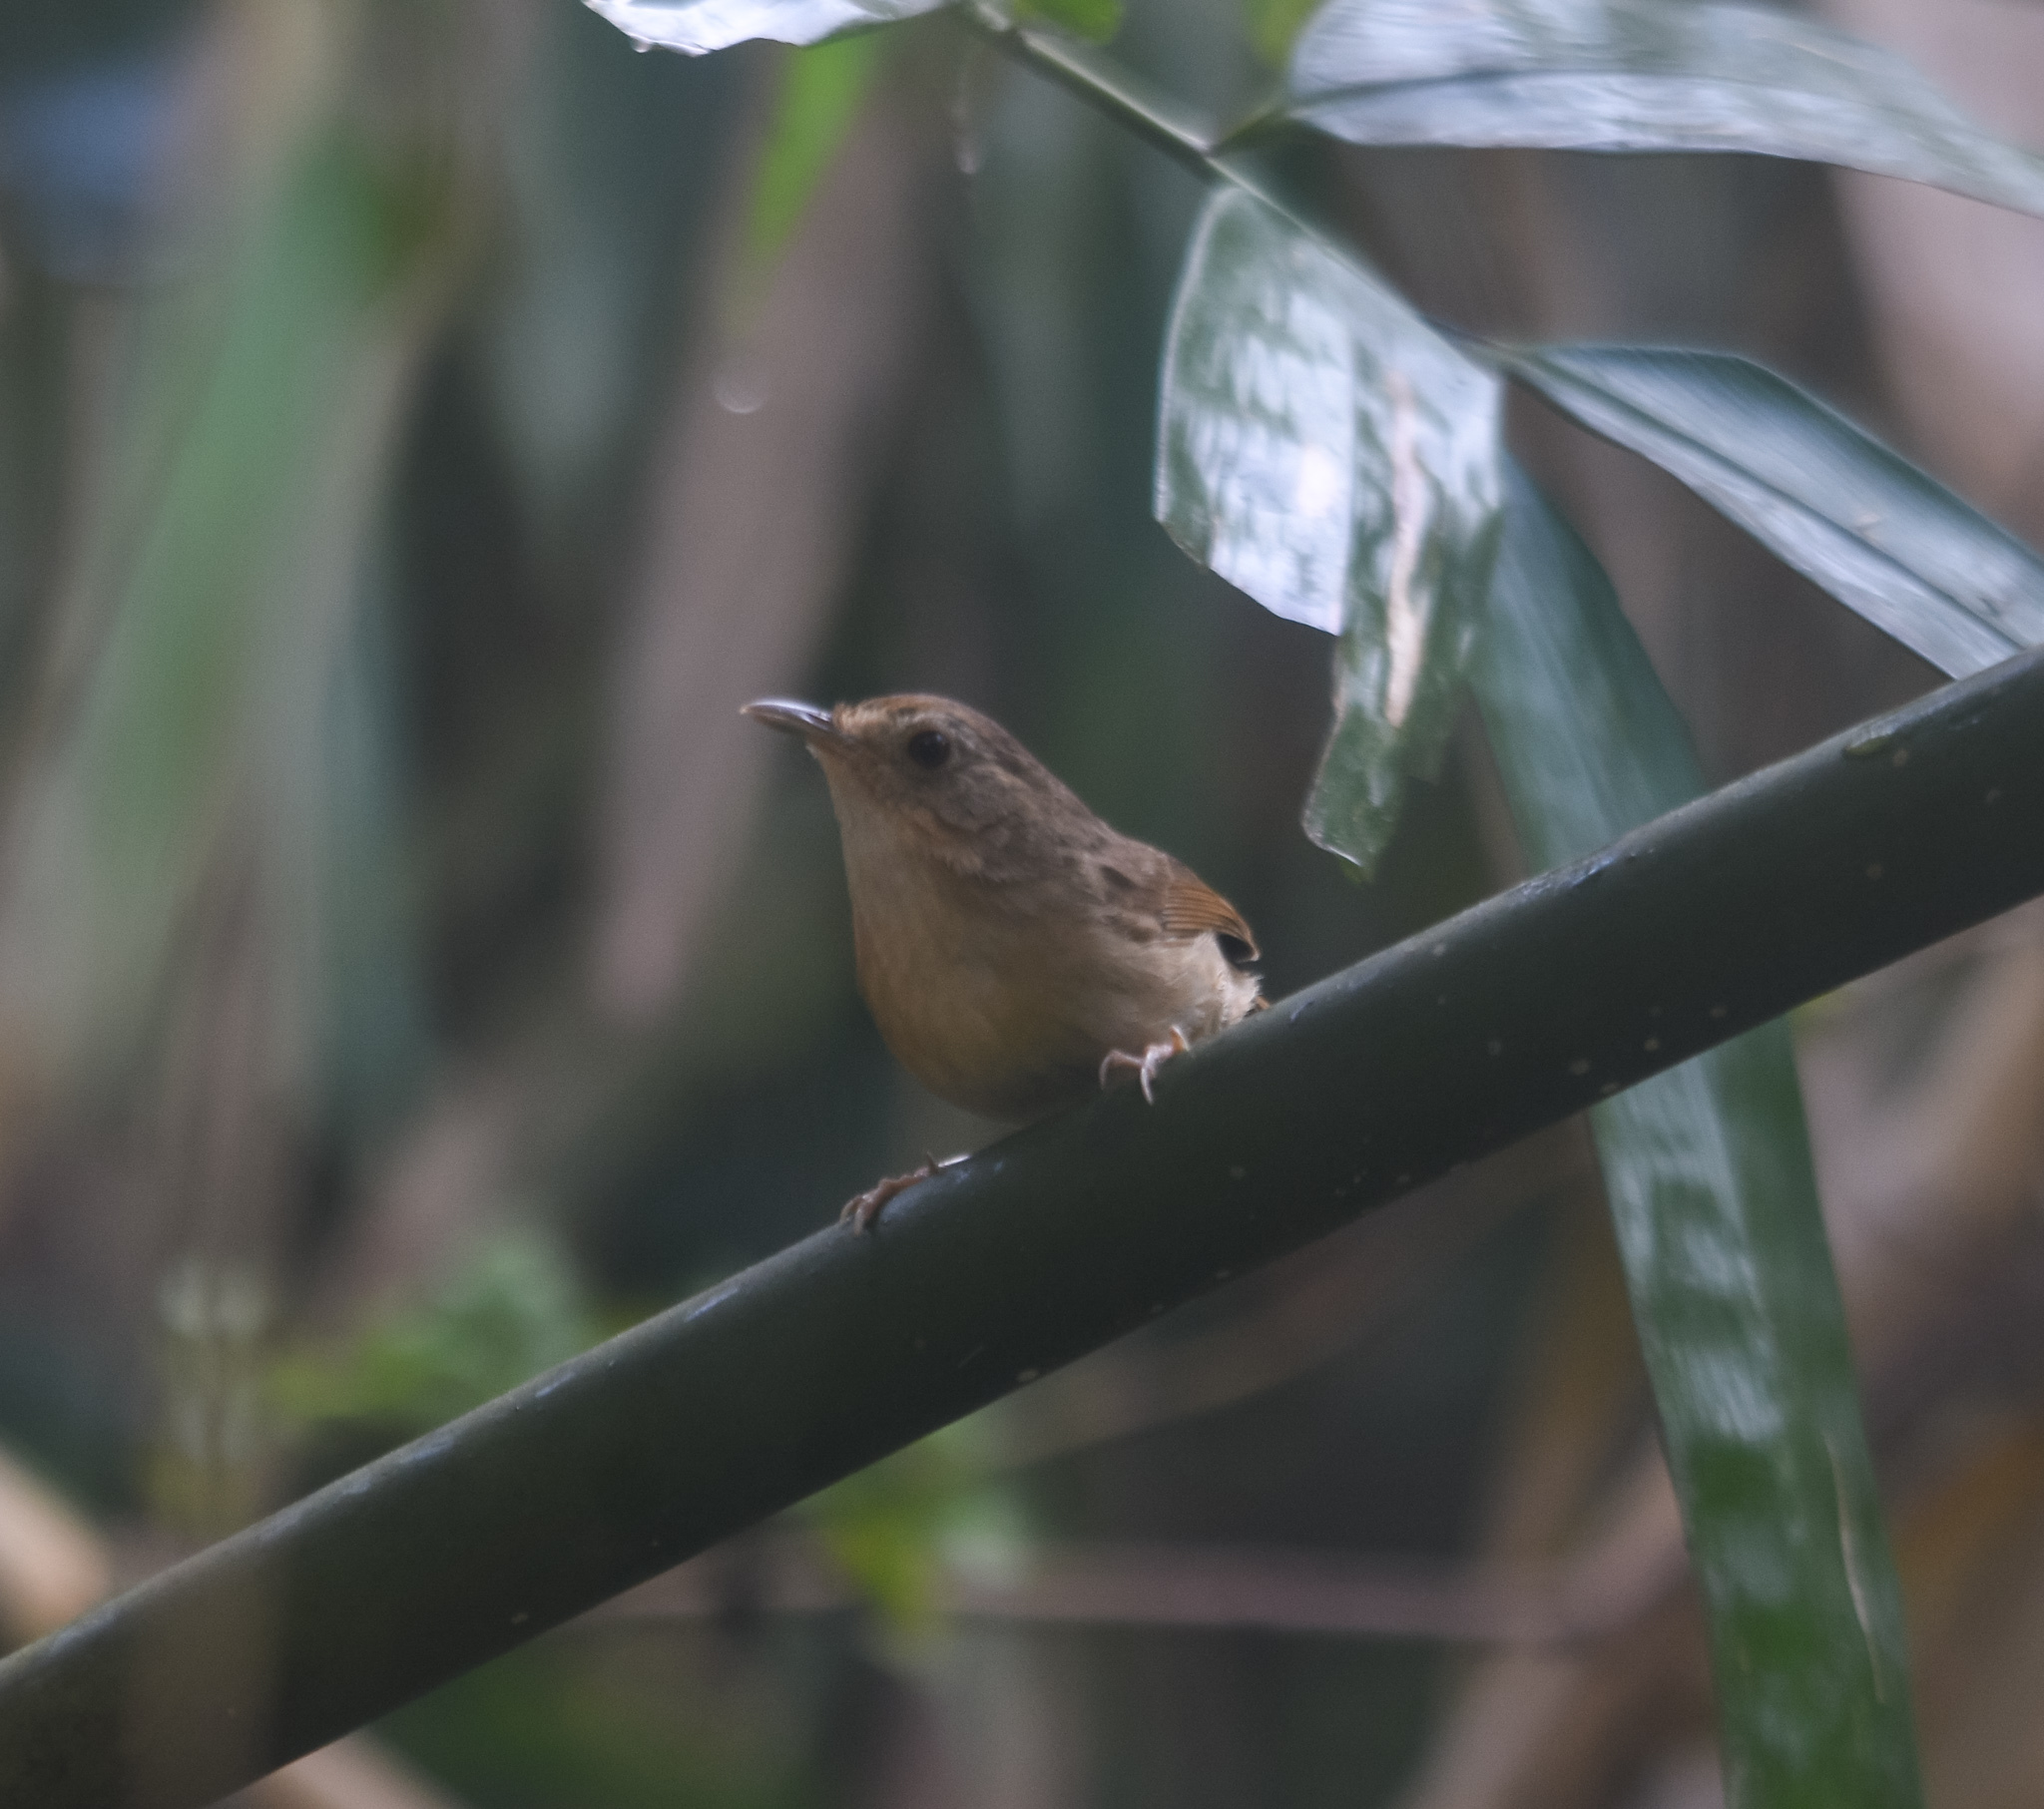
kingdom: Animalia
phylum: Chordata
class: Aves
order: Passeriformes
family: Pellorneidae
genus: Pellorneum
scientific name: Pellorneum tickelli
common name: Buff-breasted babbler
